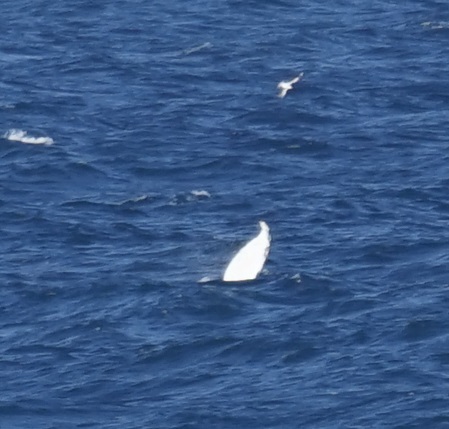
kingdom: Animalia
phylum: Chordata
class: Mammalia
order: Cetacea
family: Balaenopteridae
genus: Megaptera
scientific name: Megaptera novaeangliae
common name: Humpback whale
